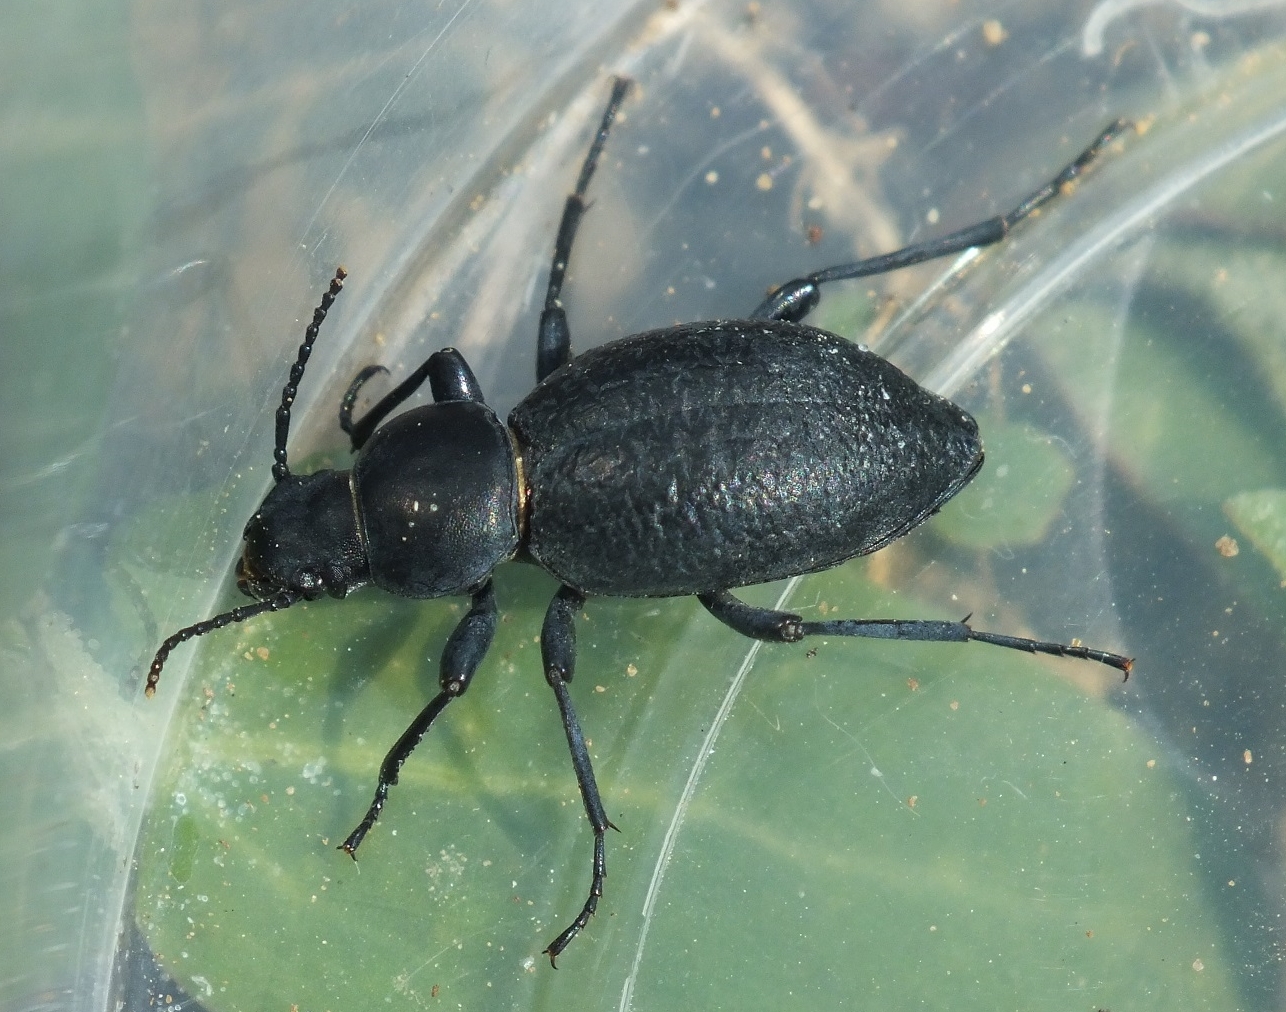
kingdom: Animalia
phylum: Arthropoda
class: Insecta
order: Coleoptera
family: Tenebrionidae
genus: Tentyria
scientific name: Tentyria nomas
